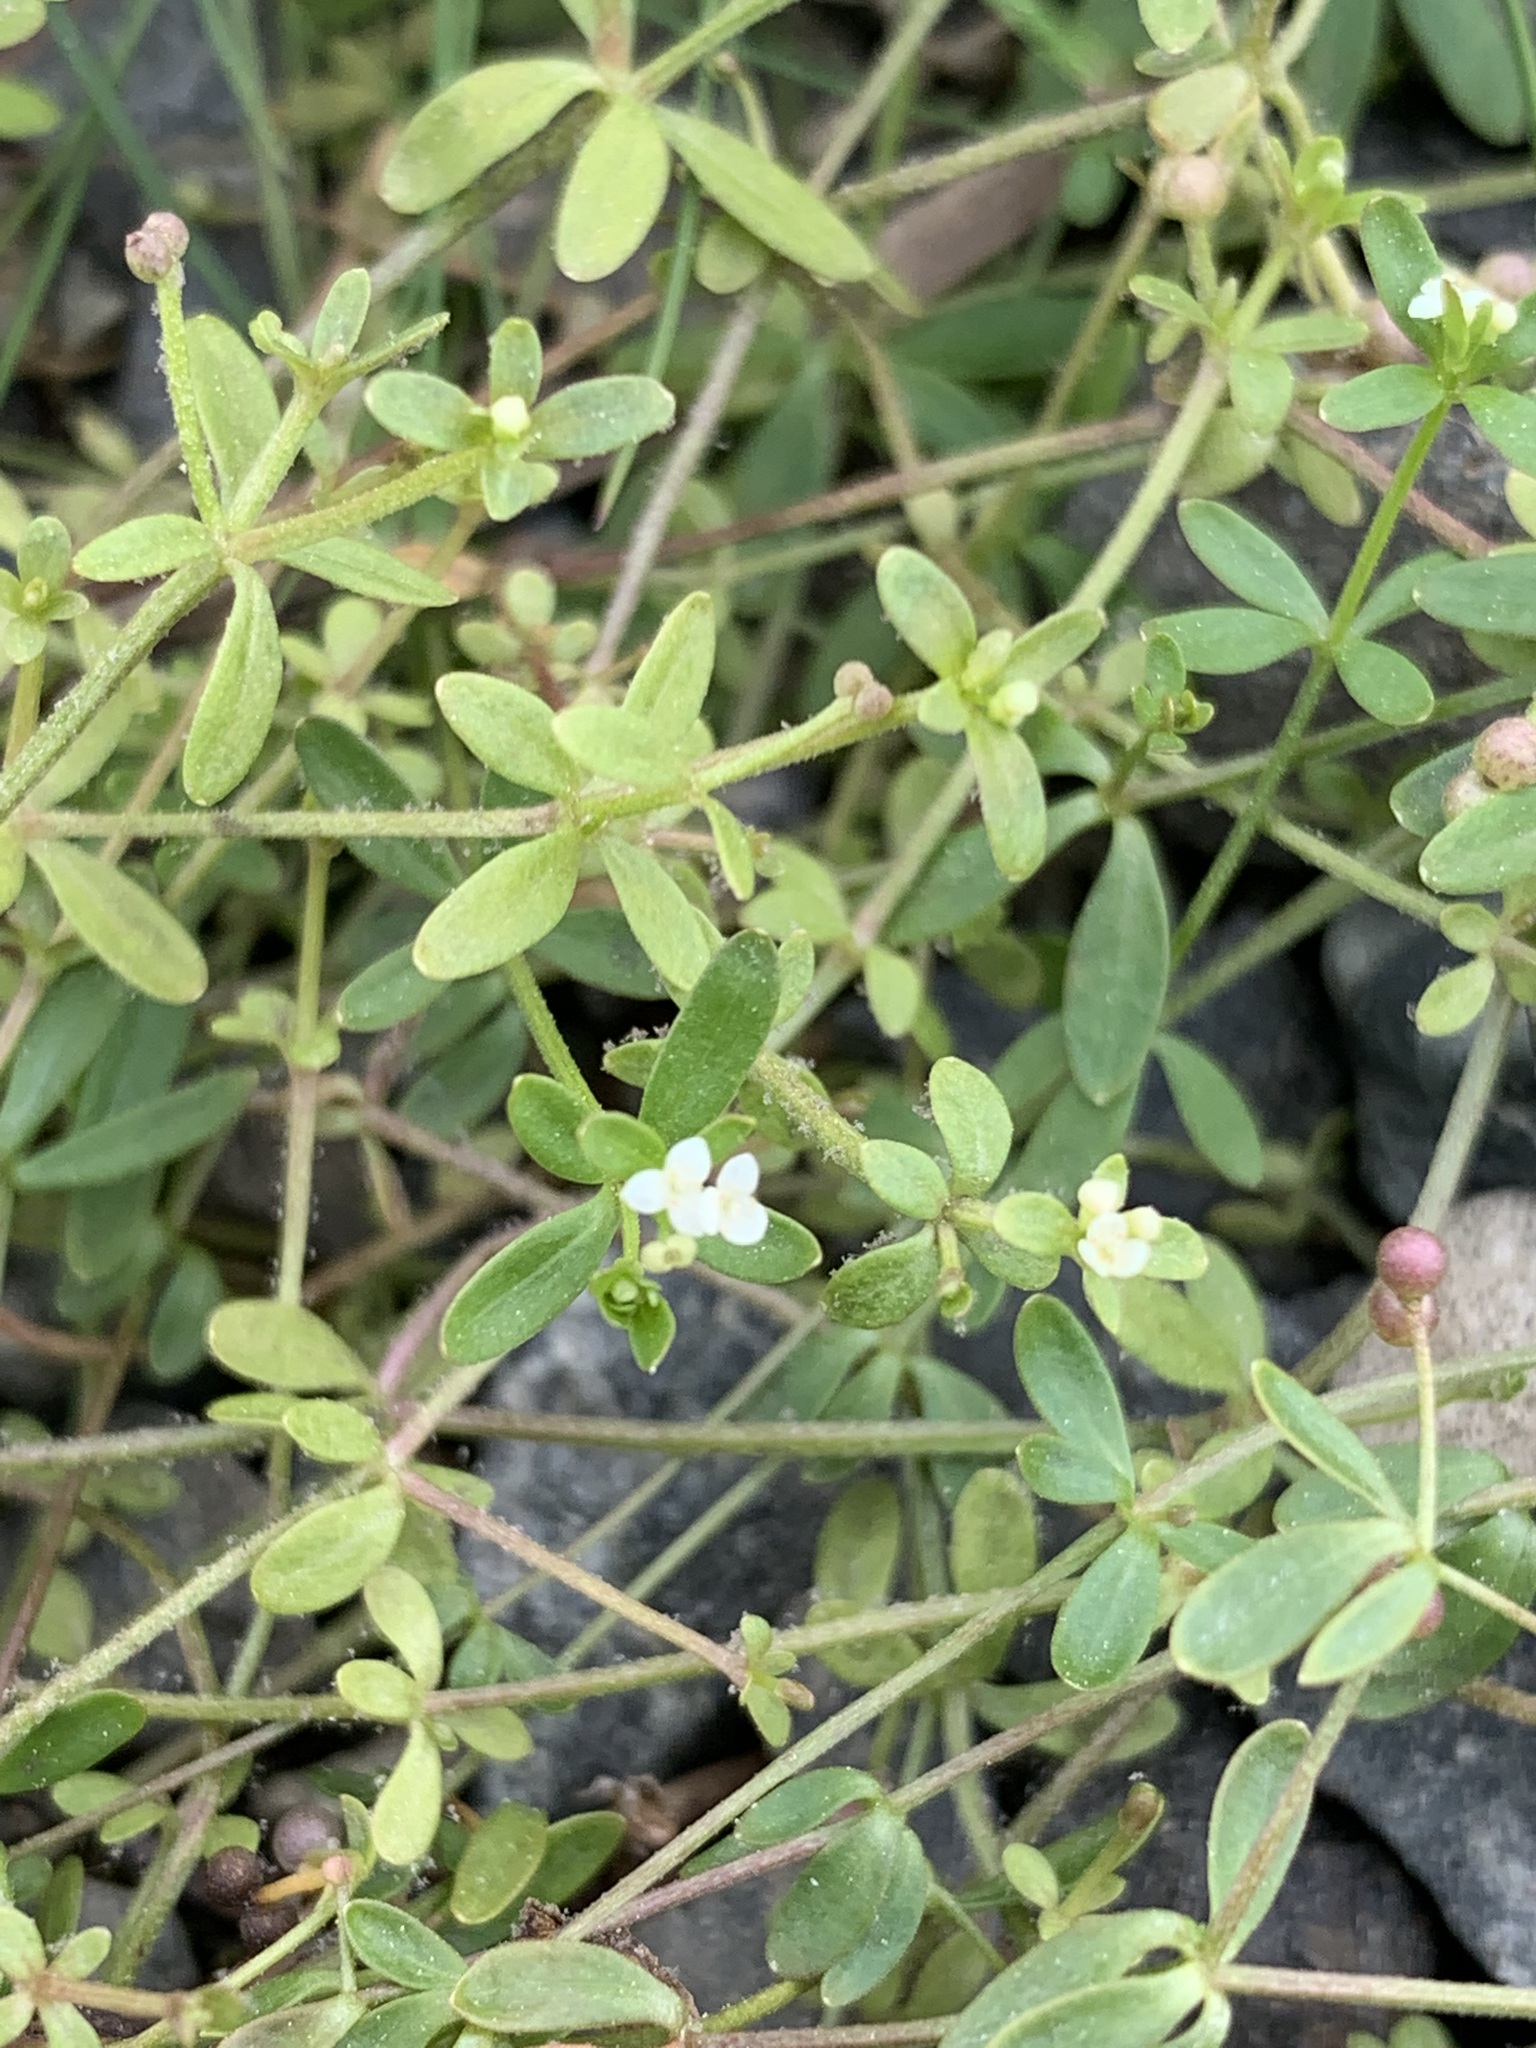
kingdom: Plantae
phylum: Tracheophyta
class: Magnoliopsida
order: Gentianales
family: Rubiaceae
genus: Galium
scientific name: Galium trifidum
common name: Small bedstraw
